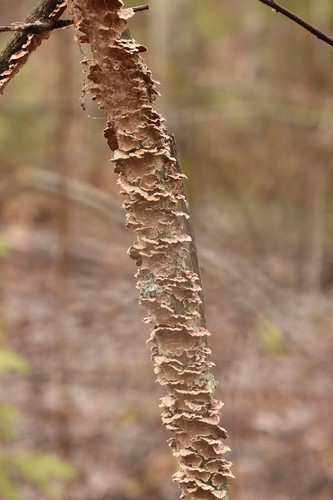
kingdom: Fungi
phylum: Basidiomycota
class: Agaricomycetes
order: Hymenochaetales
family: Hymenochaetaceae
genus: Hydnoporia
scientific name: Hydnoporia tabacina
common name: Willow glue
